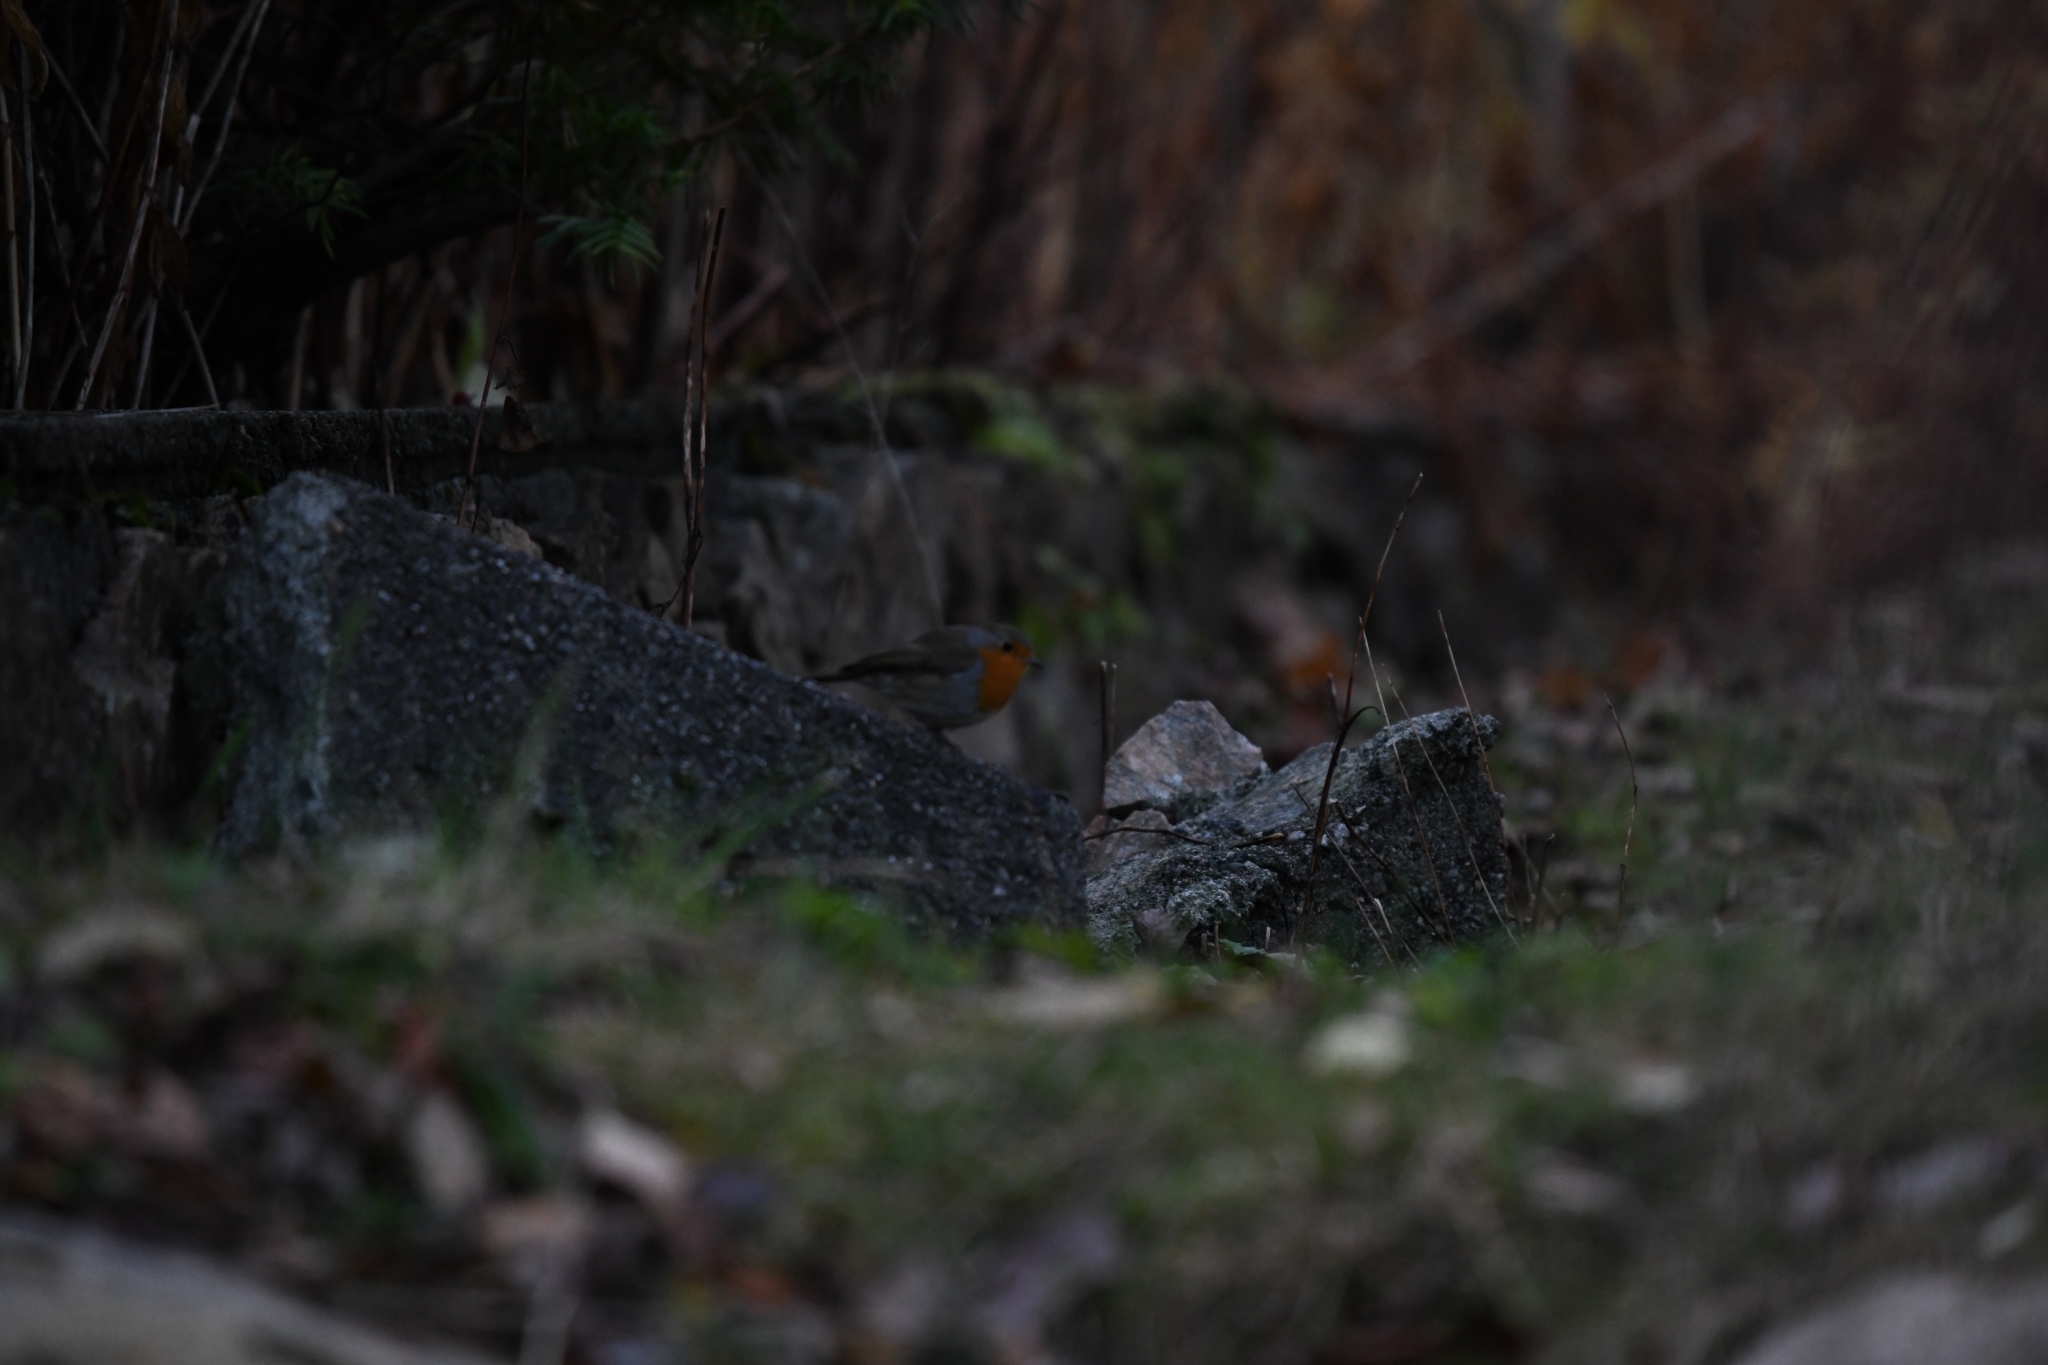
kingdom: Animalia
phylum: Chordata
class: Aves
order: Passeriformes
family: Muscicapidae
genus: Erithacus
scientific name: Erithacus rubecula
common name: European robin
